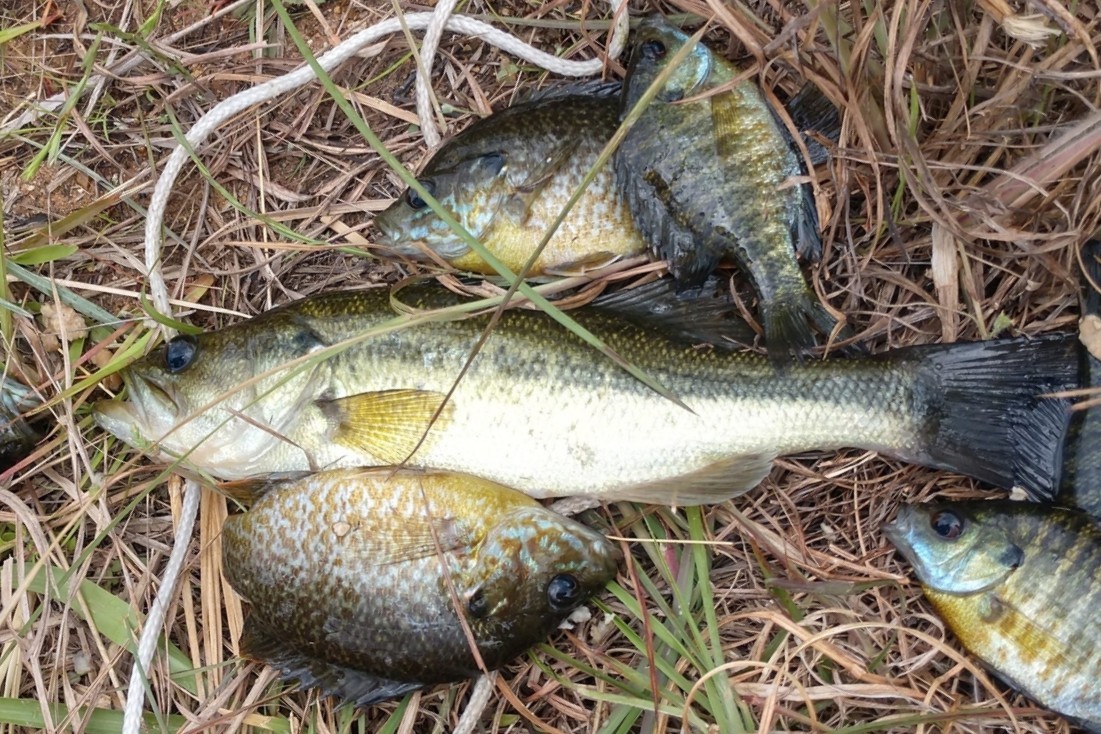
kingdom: Animalia
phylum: Chordata
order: Perciformes
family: Centrarchidae
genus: Micropterus
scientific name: Micropterus
